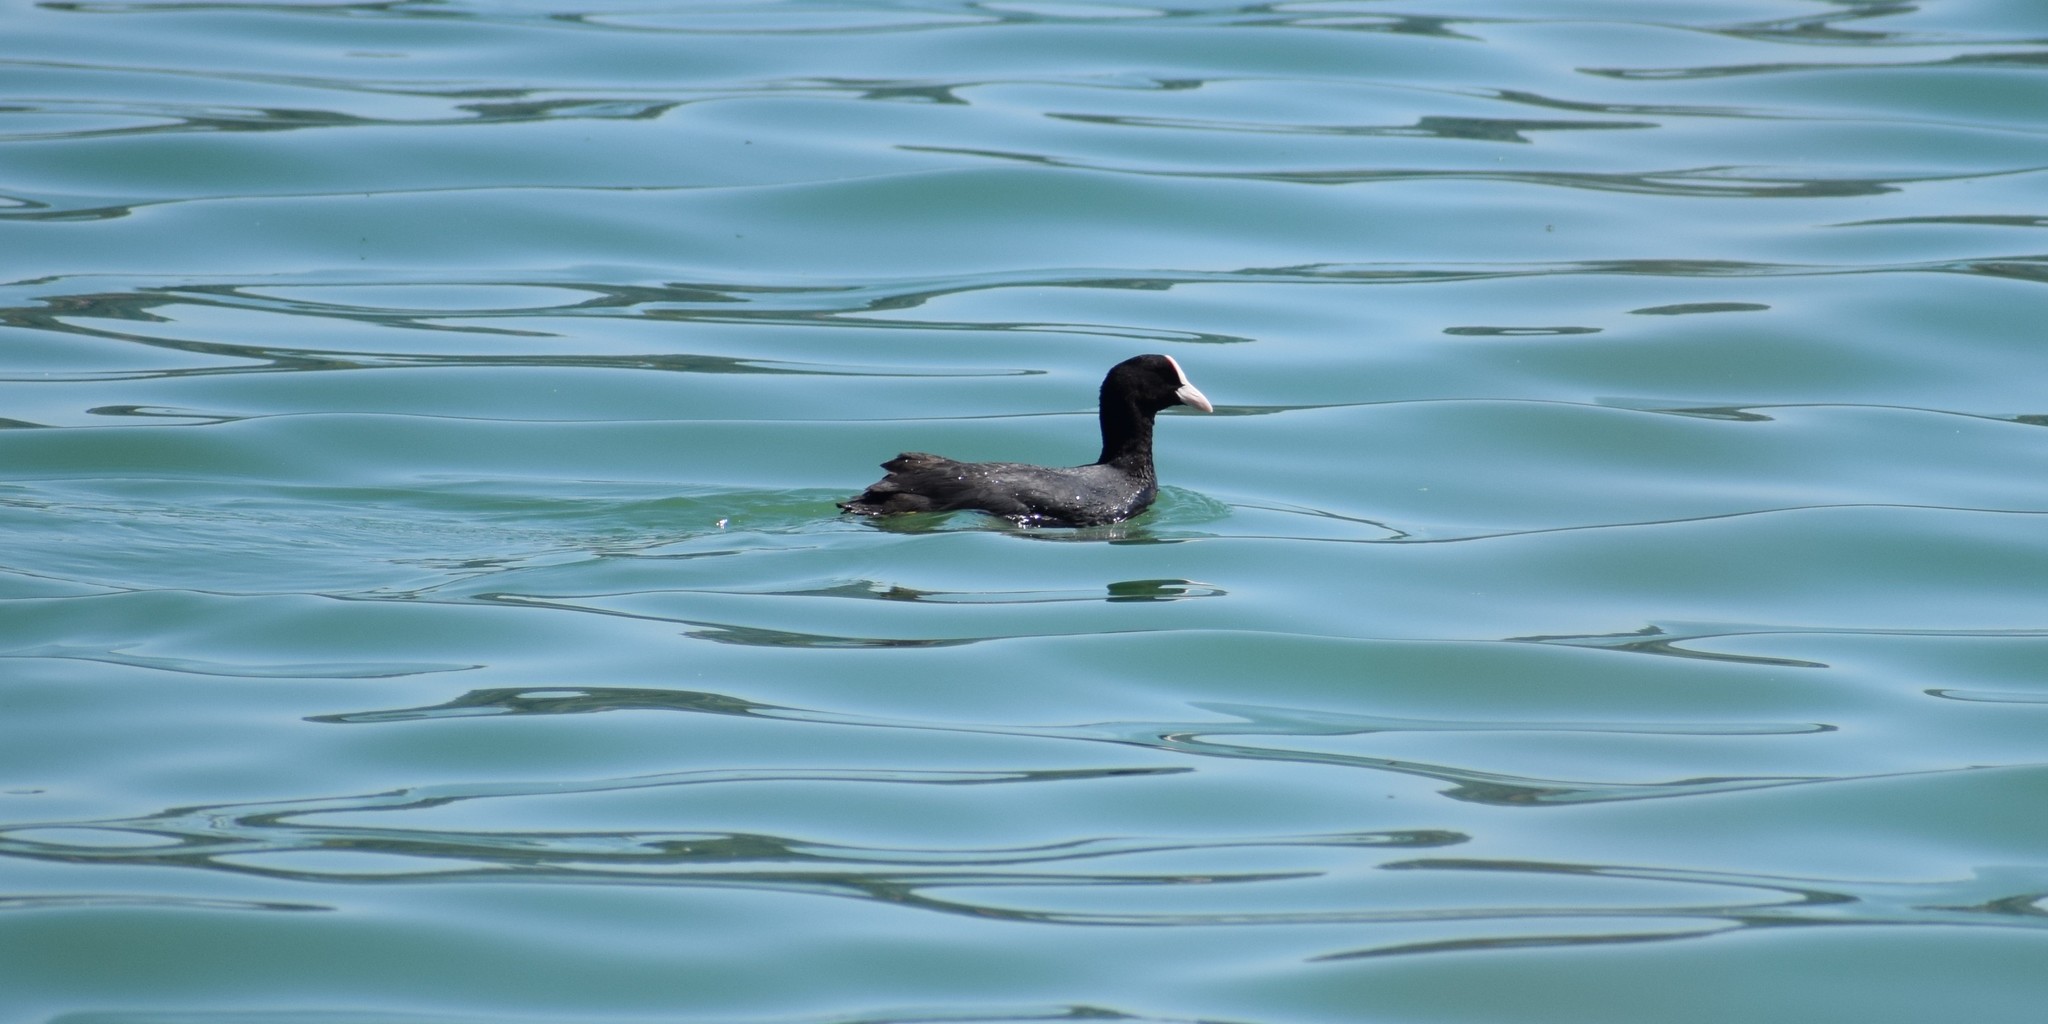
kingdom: Animalia
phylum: Chordata
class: Aves
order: Gruiformes
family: Rallidae
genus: Fulica
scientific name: Fulica atra
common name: Eurasian coot
